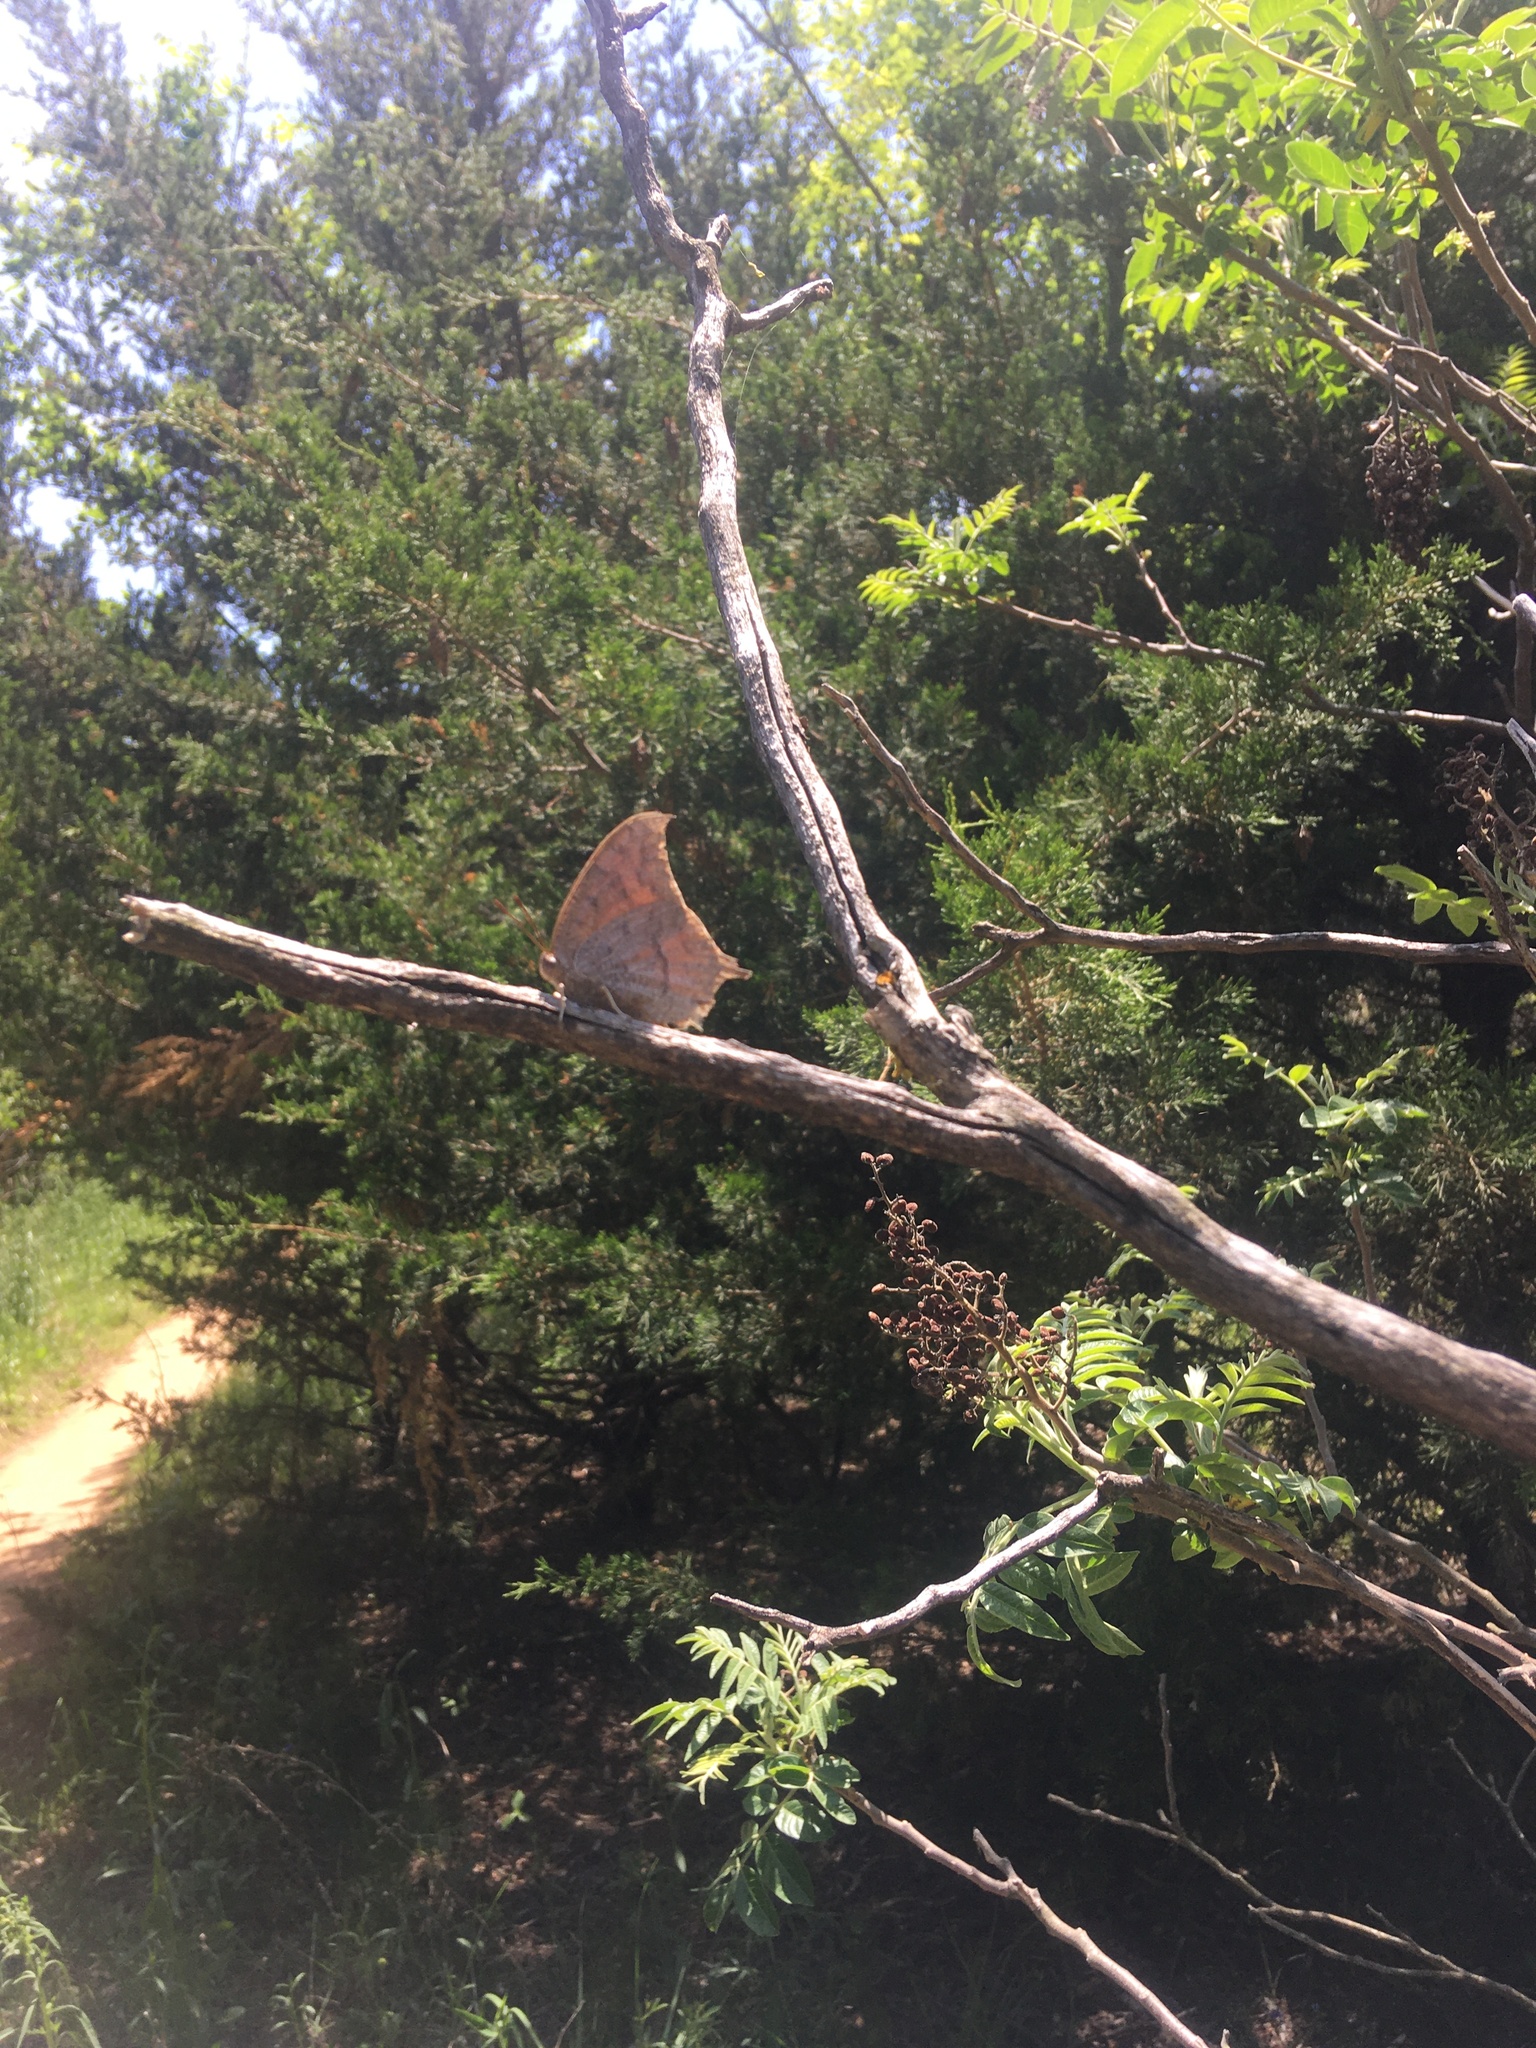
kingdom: Animalia
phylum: Arthropoda
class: Insecta
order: Lepidoptera
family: Nymphalidae
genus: Anaea
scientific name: Anaea andria
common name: Goatweed leafwing
